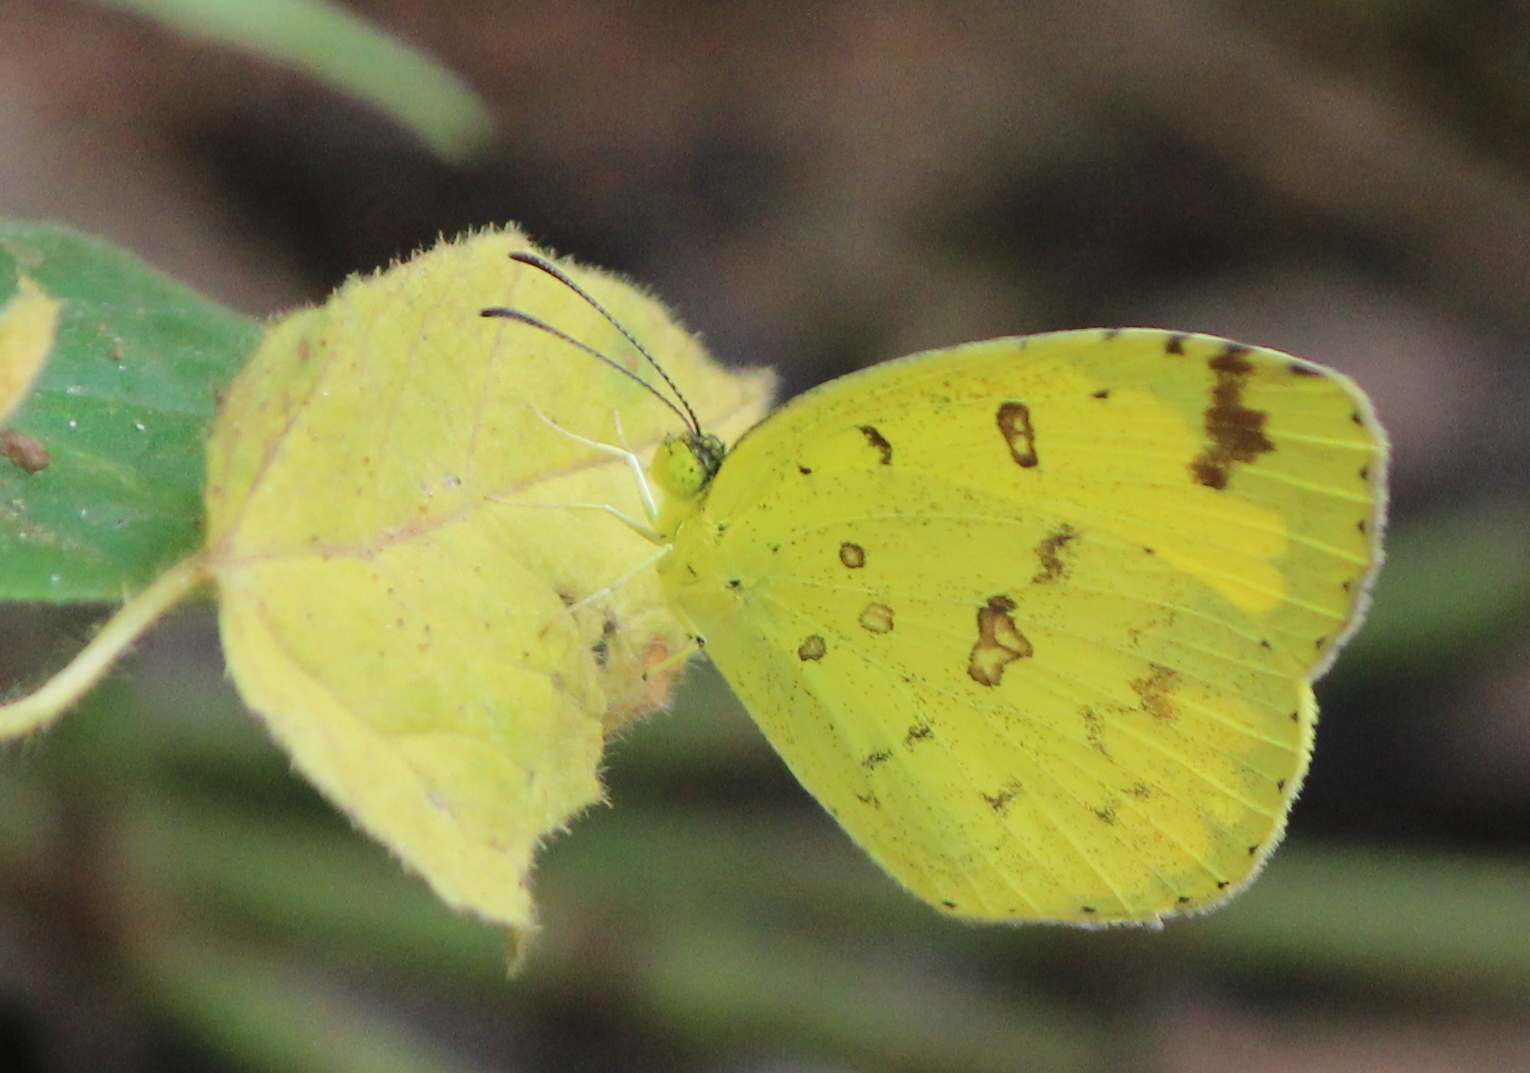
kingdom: Animalia
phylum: Arthropoda
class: Insecta
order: Lepidoptera
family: Pieridae
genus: Eurema
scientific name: Eurema hecabe
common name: Pale grass yellow
